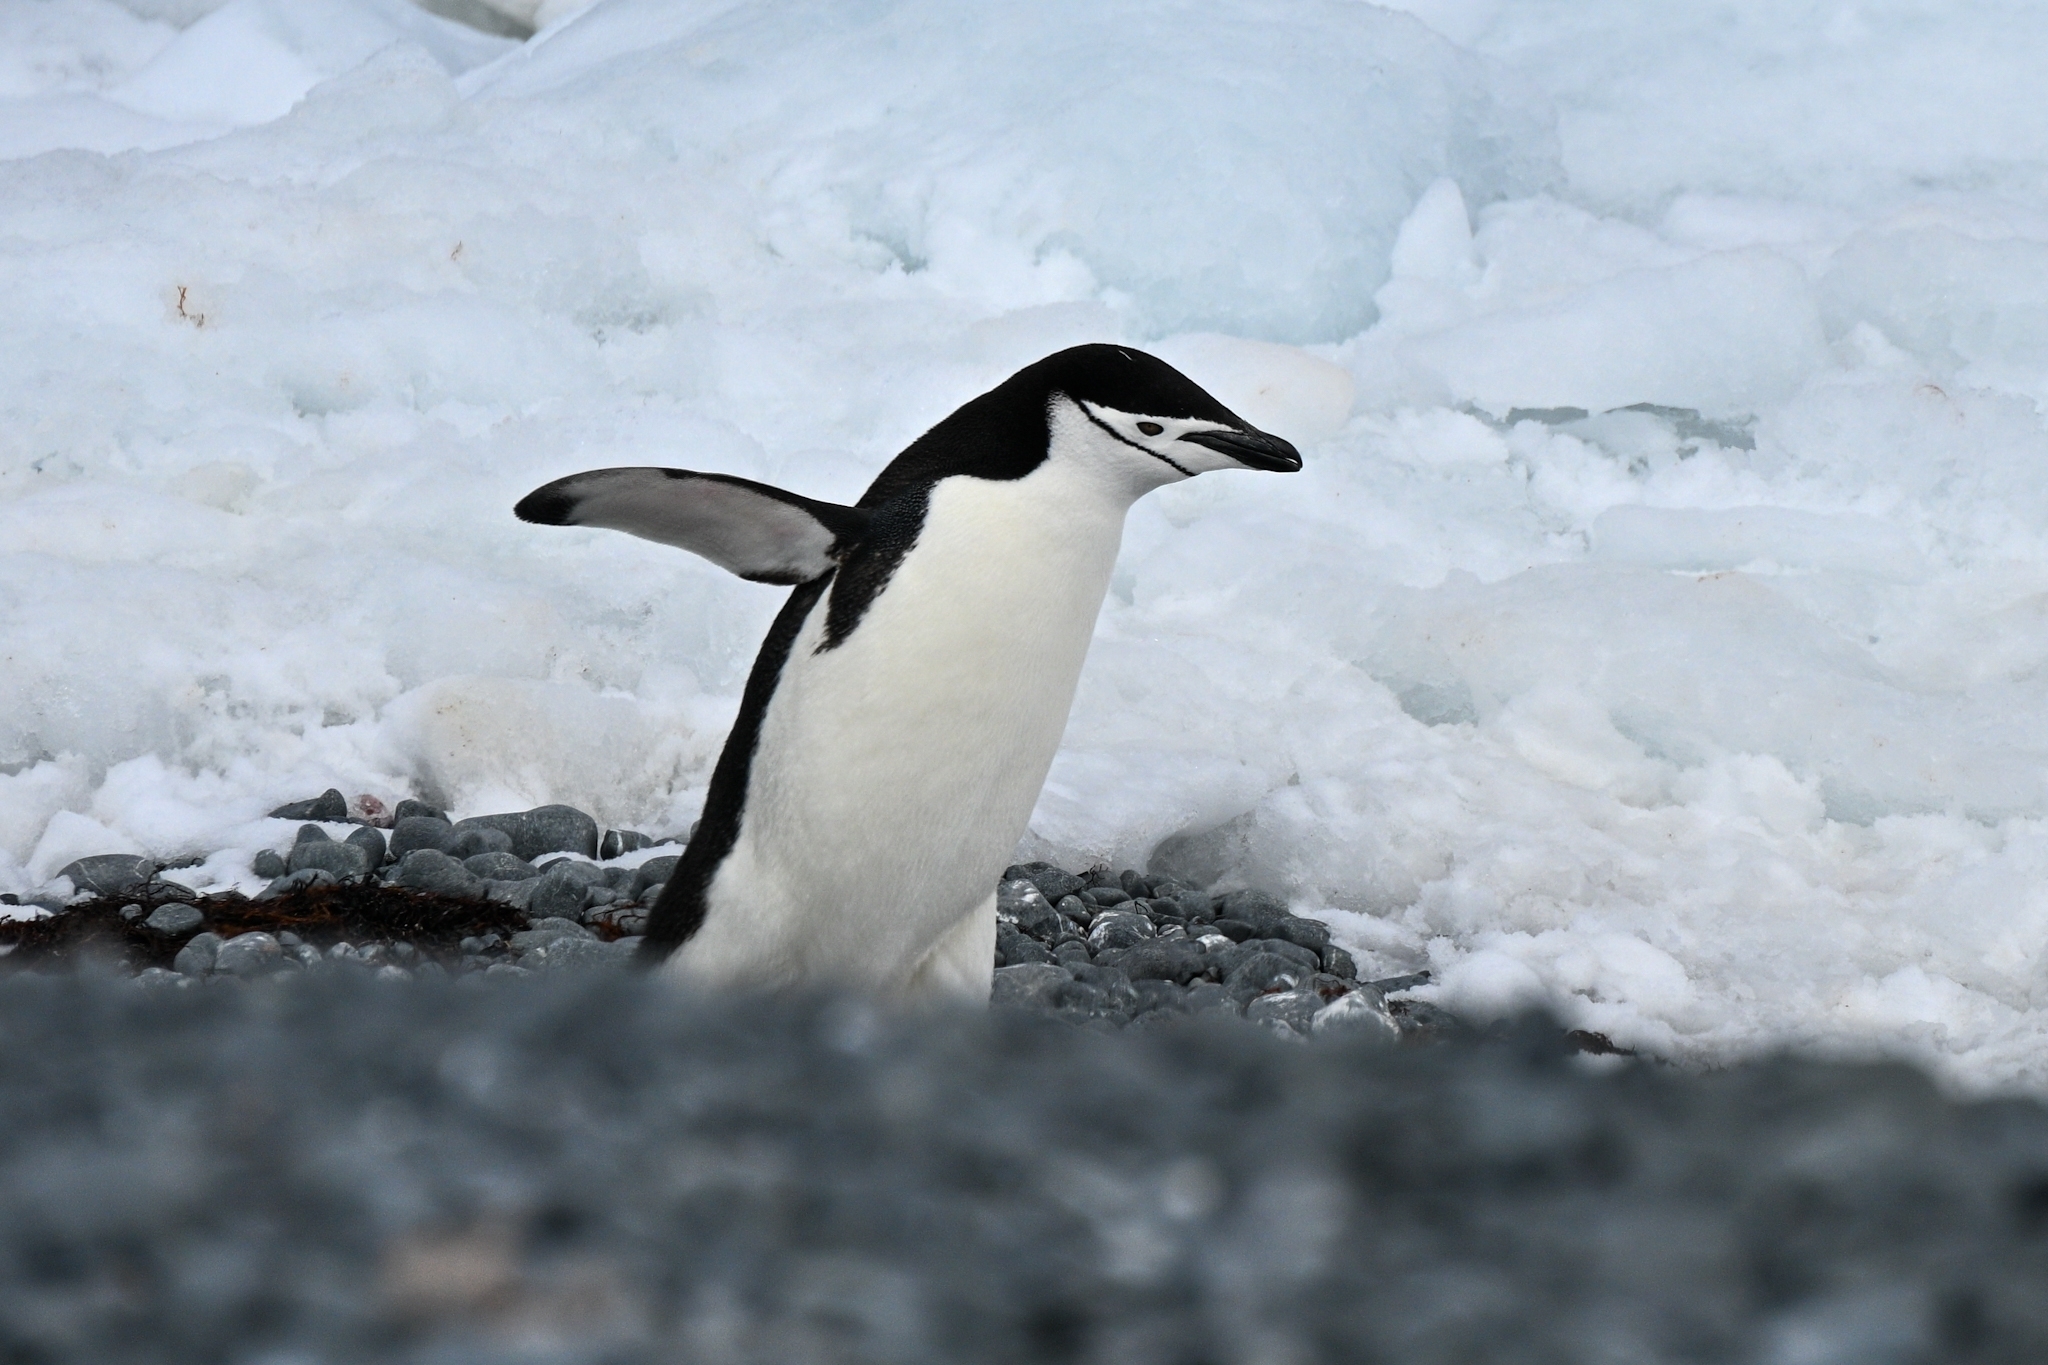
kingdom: Animalia
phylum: Chordata
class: Aves
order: Sphenisciformes
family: Spheniscidae
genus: Pygoscelis
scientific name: Pygoscelis antarcticus
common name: Chinstrap penguin
